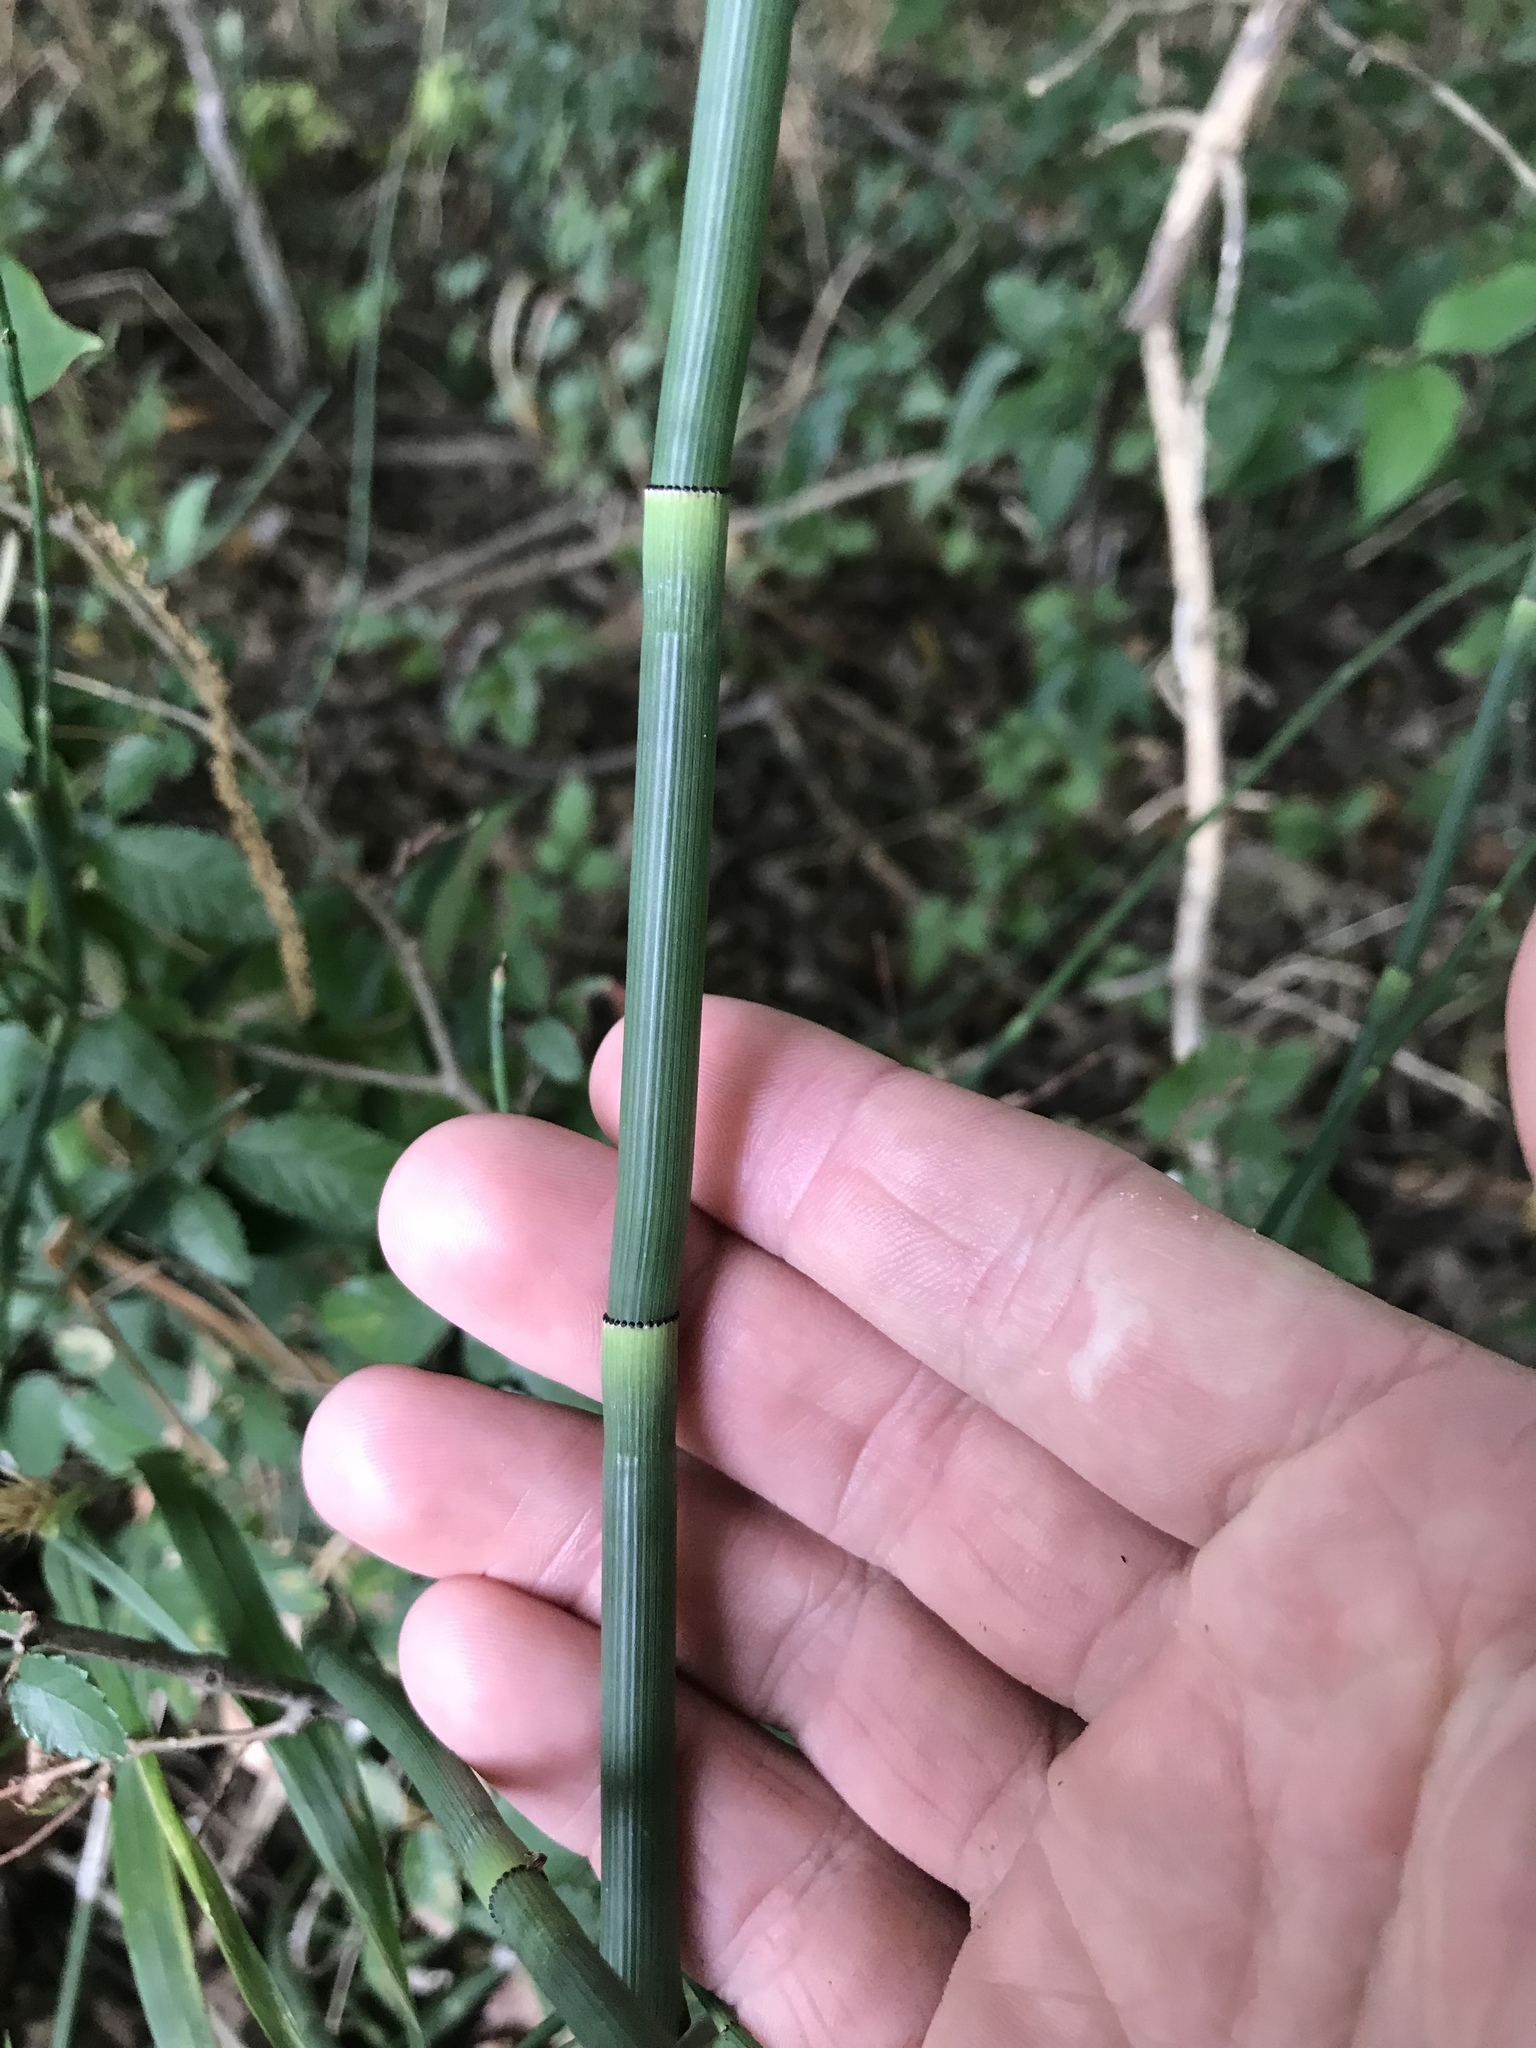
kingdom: Plantae
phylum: Tracheophyta
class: Polypodiopsida
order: Equisetales
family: Equisetaceae
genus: Equisetum
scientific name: Equisetum laevigatum
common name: Smooth scouring-rush
